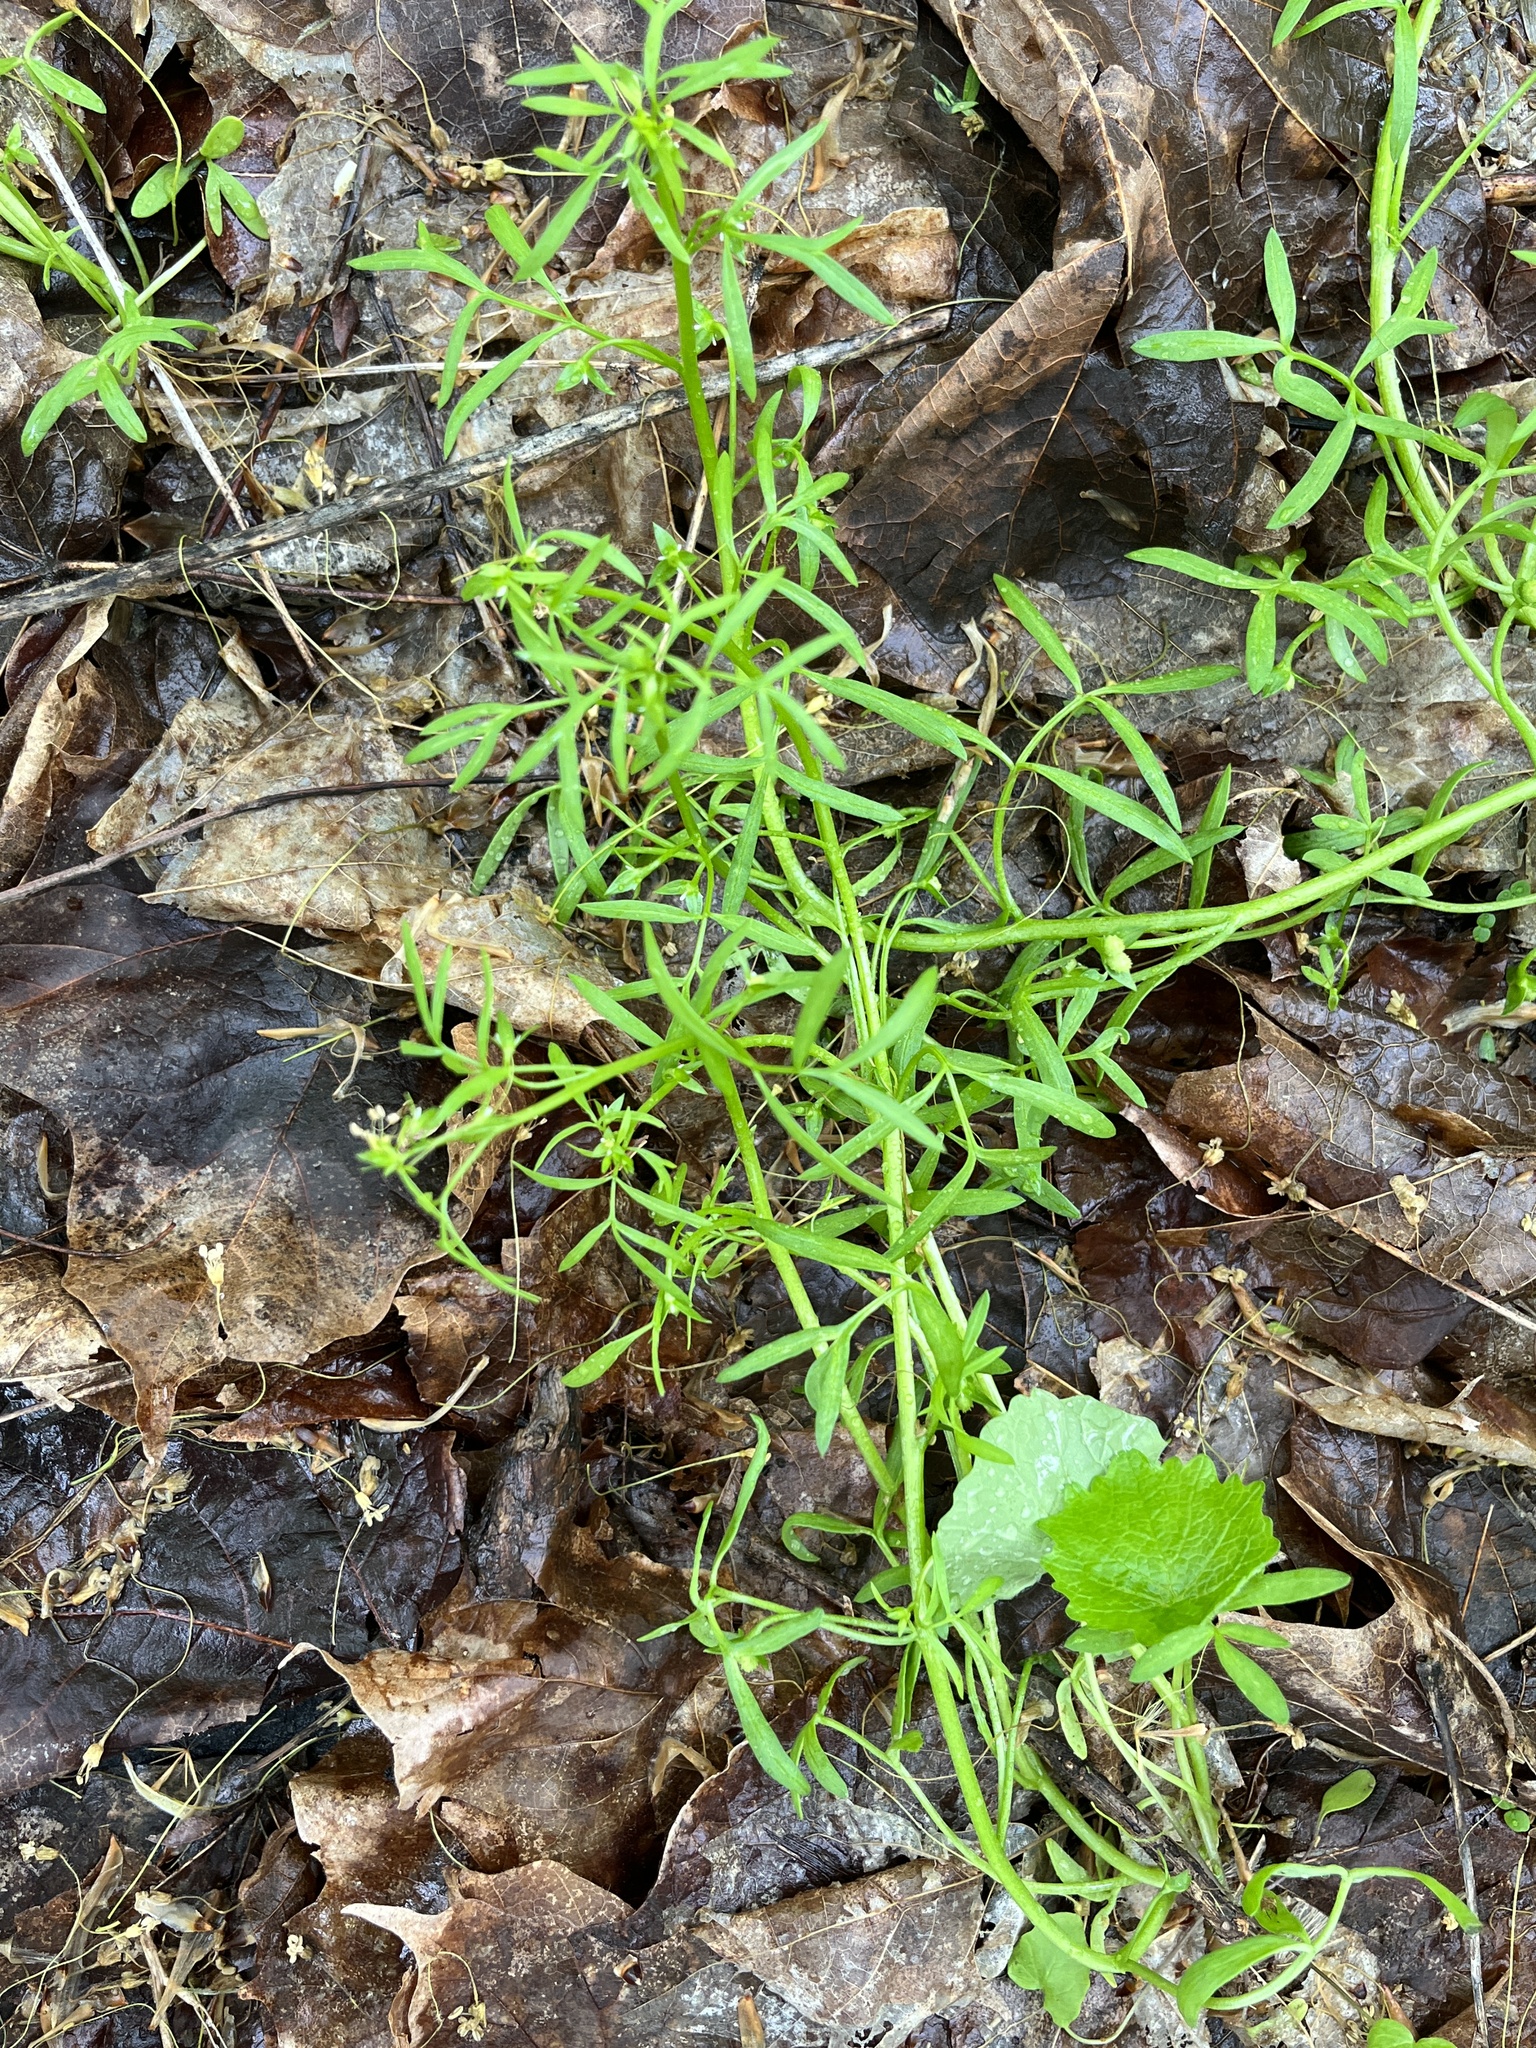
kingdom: Plantae
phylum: Tracheophyta
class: Magnoliopsida
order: Brassicales
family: Limnanthaceae
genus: Floerkea
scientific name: Floerkea proserpinacoides
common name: False mermaid
